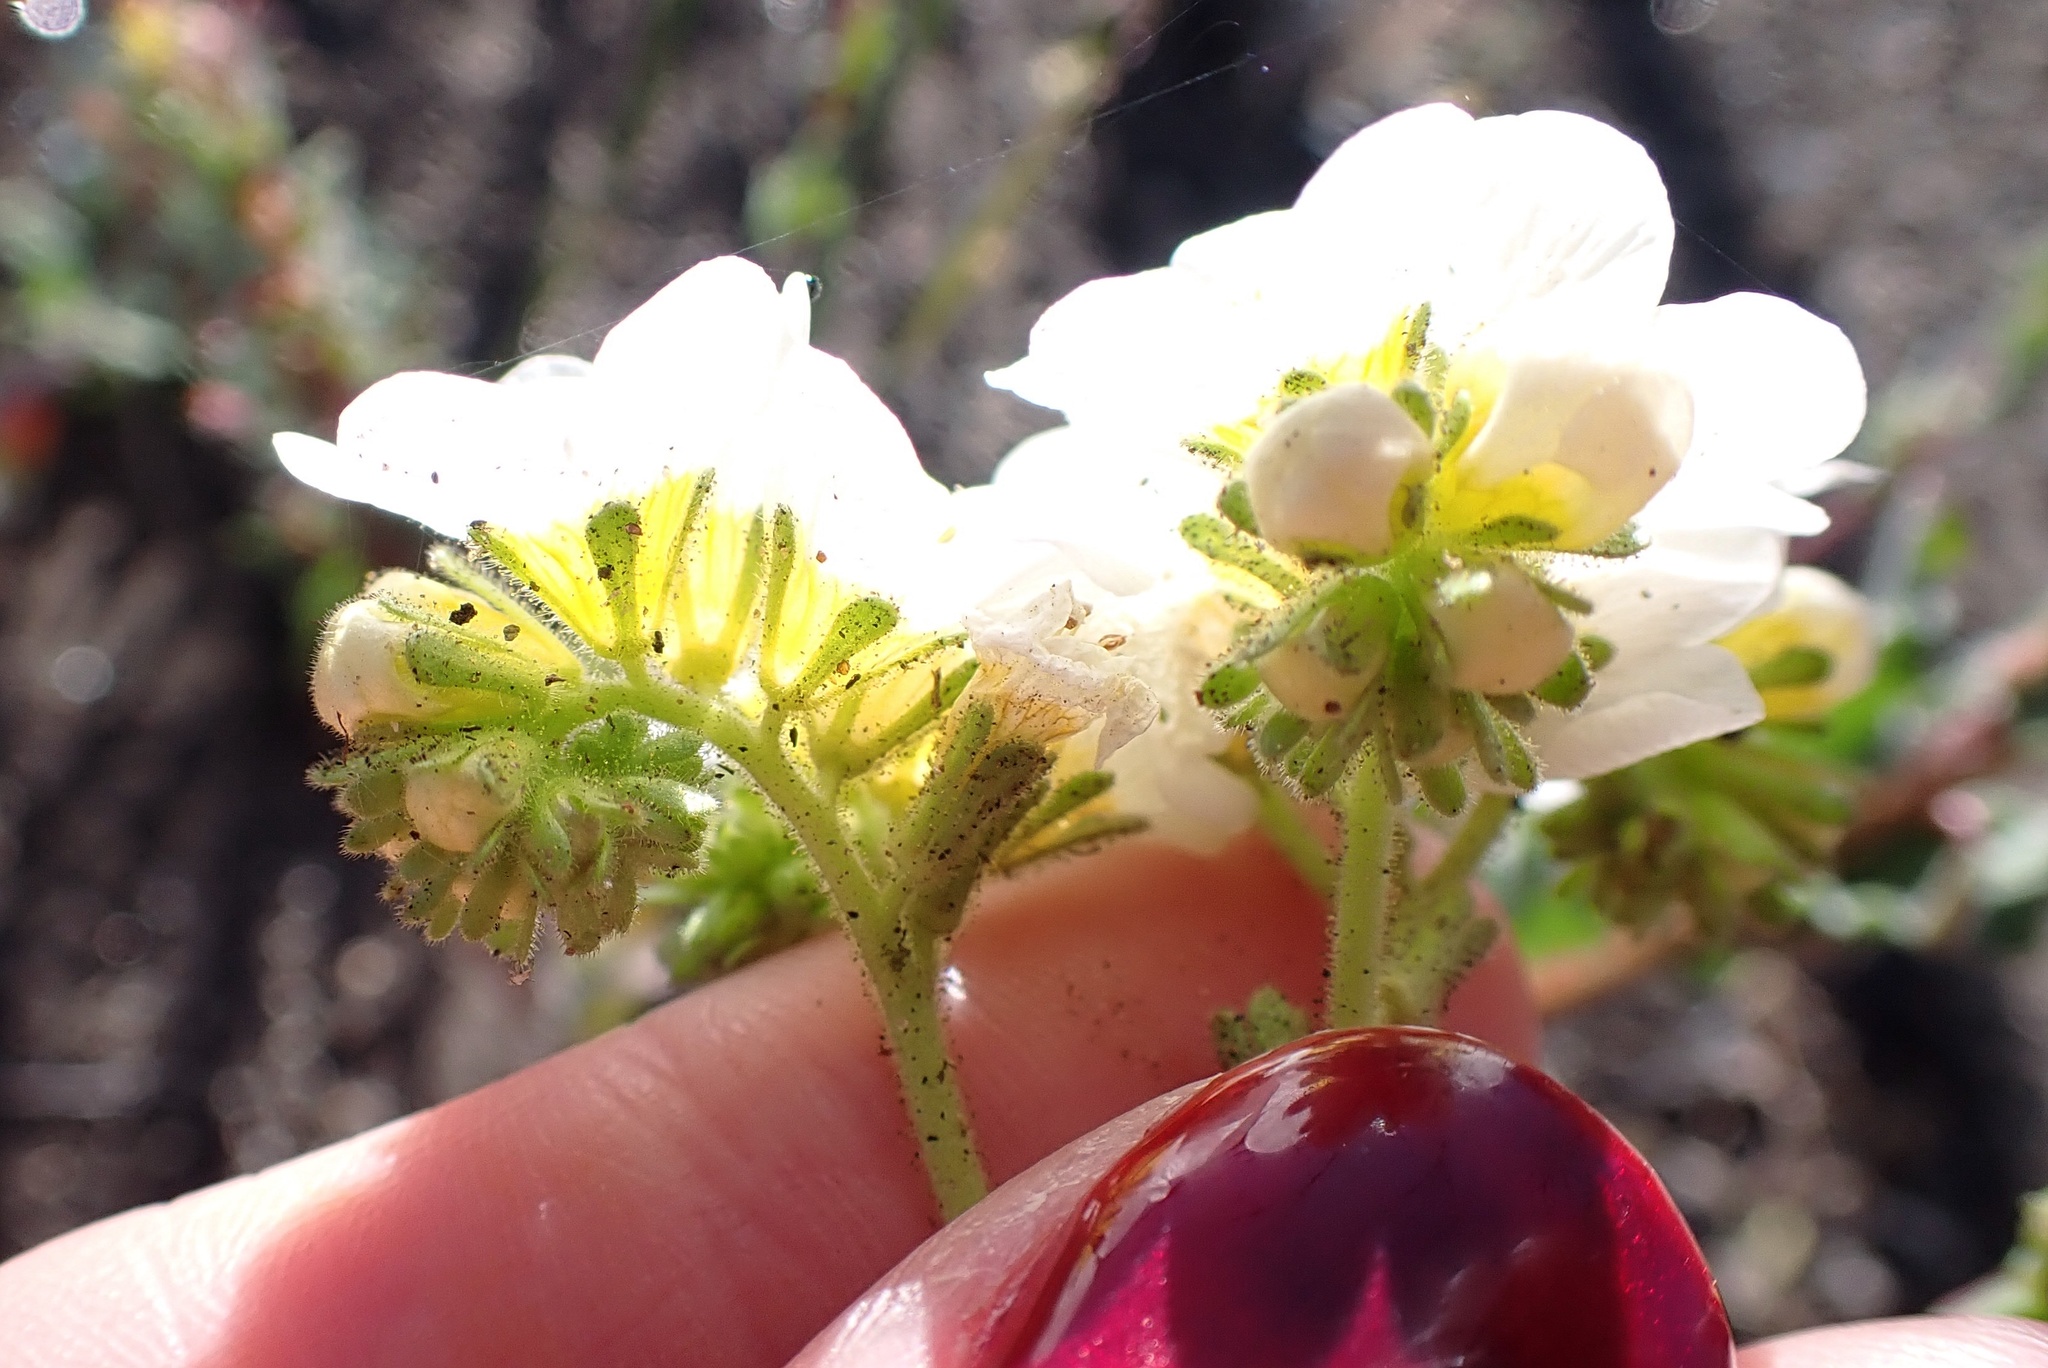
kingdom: Plantae
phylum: Tracheophyta
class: Magnoliopsida
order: Boraginales
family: Hydrophyllaceae
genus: Phacelia
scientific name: Phacelia brachyloba
